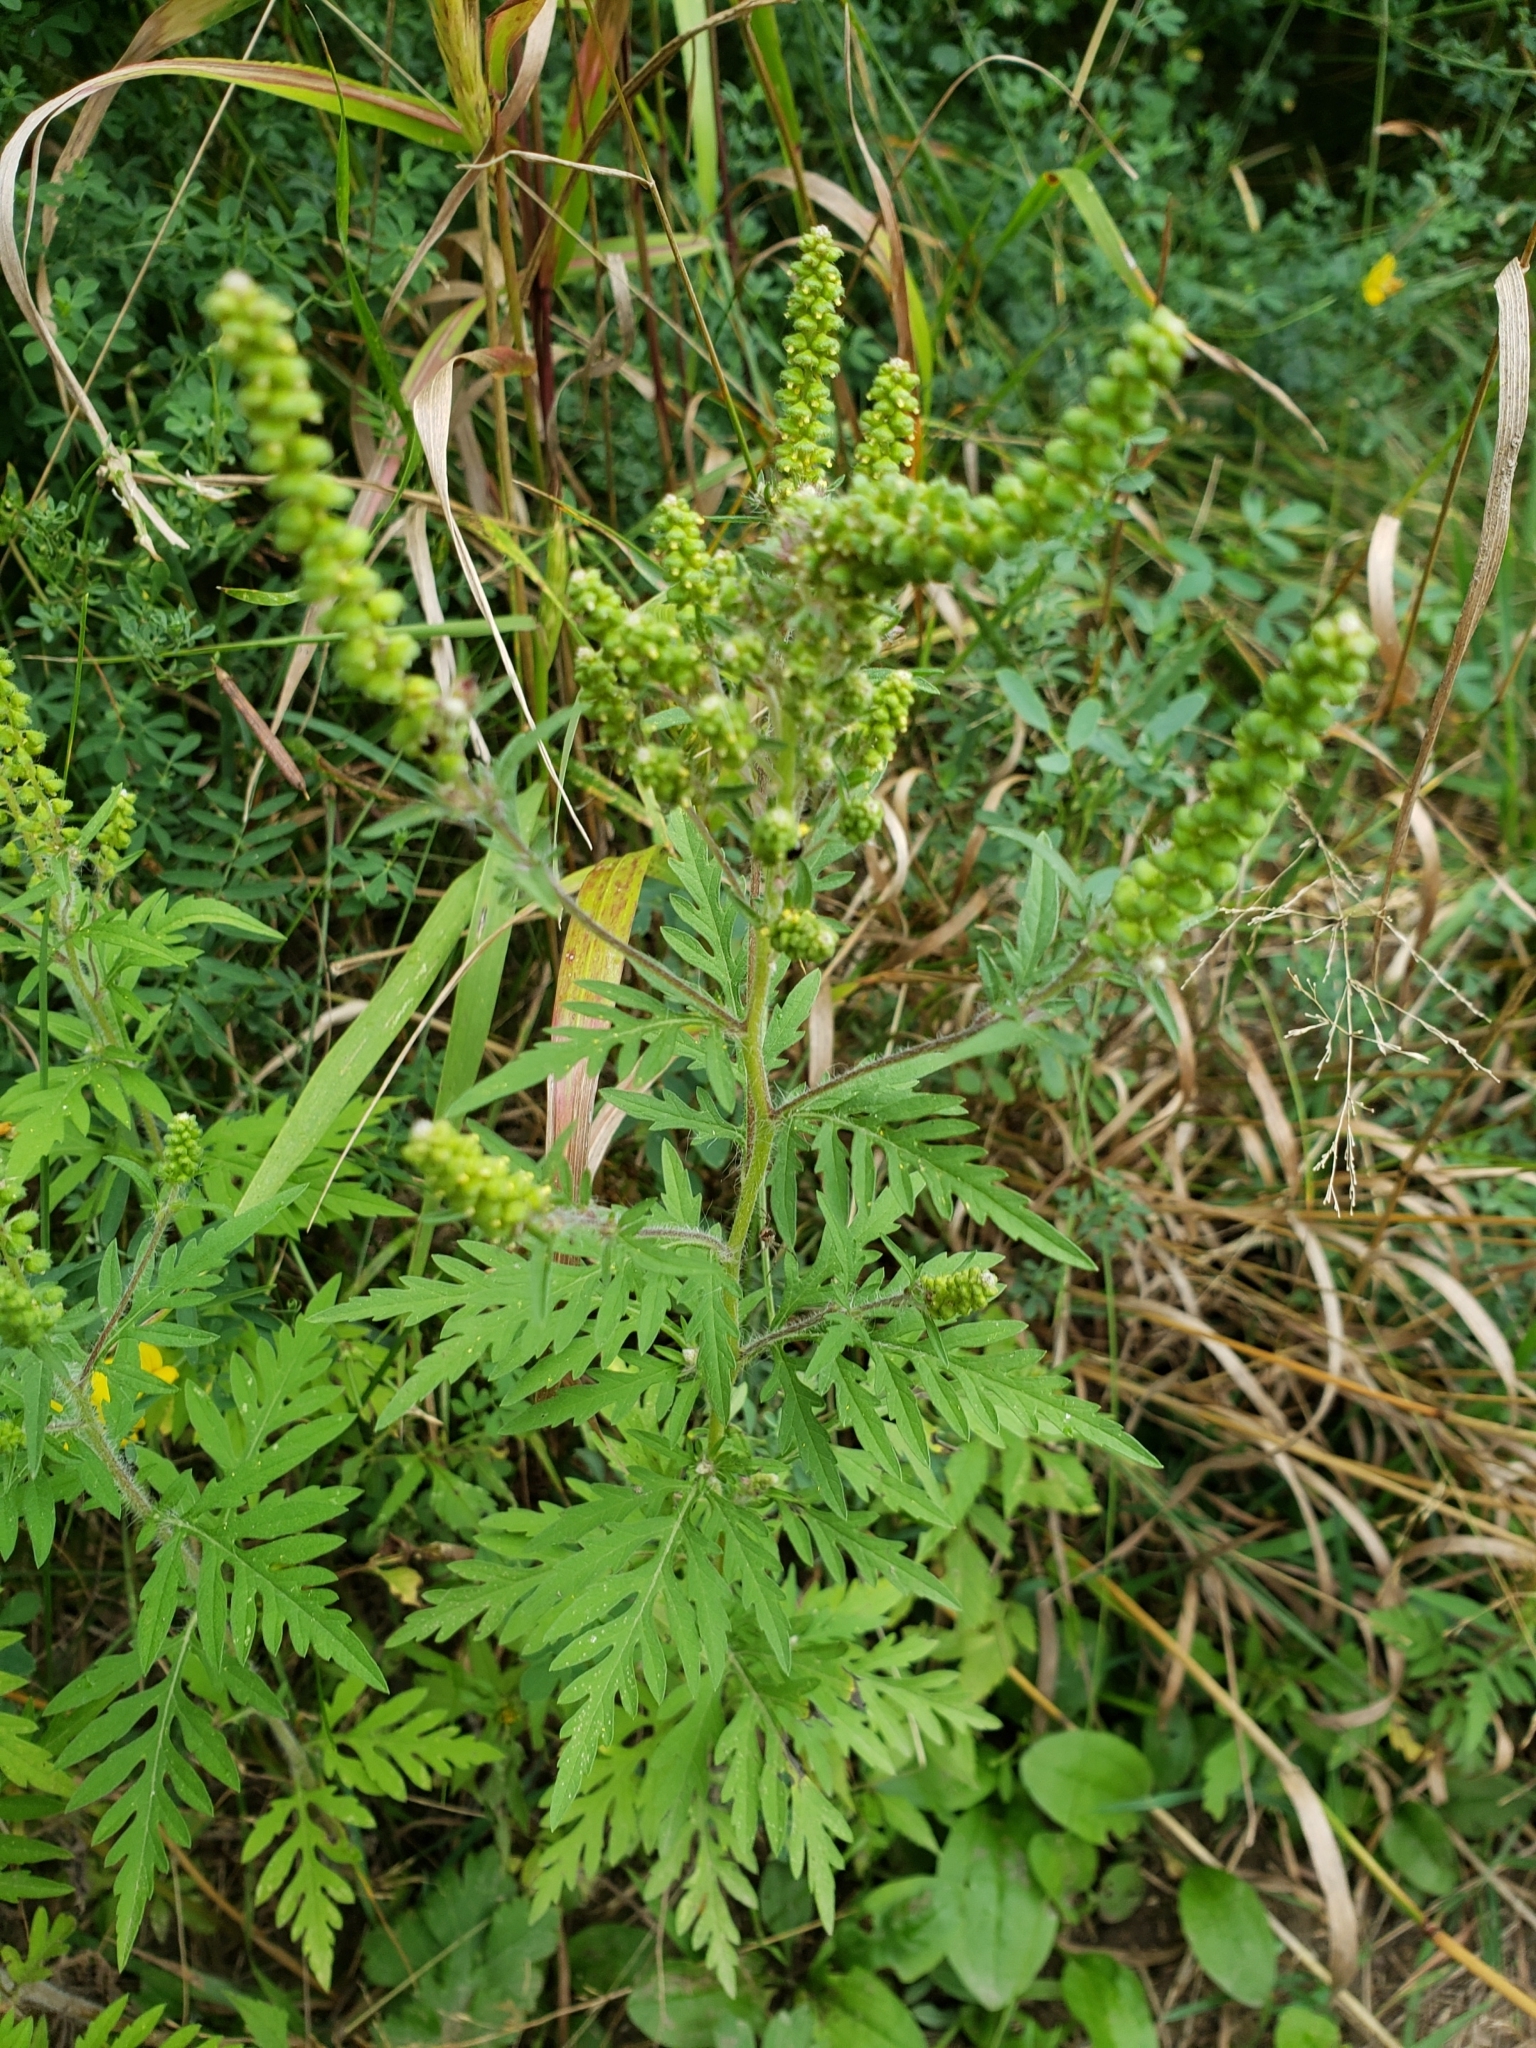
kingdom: Plantae
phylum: Tracheophyta
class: Magnoliopsida
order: Asterales
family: Asteraceae
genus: Ambrosia
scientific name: Ambrosia artemisiifolia
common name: Annual ragweed
